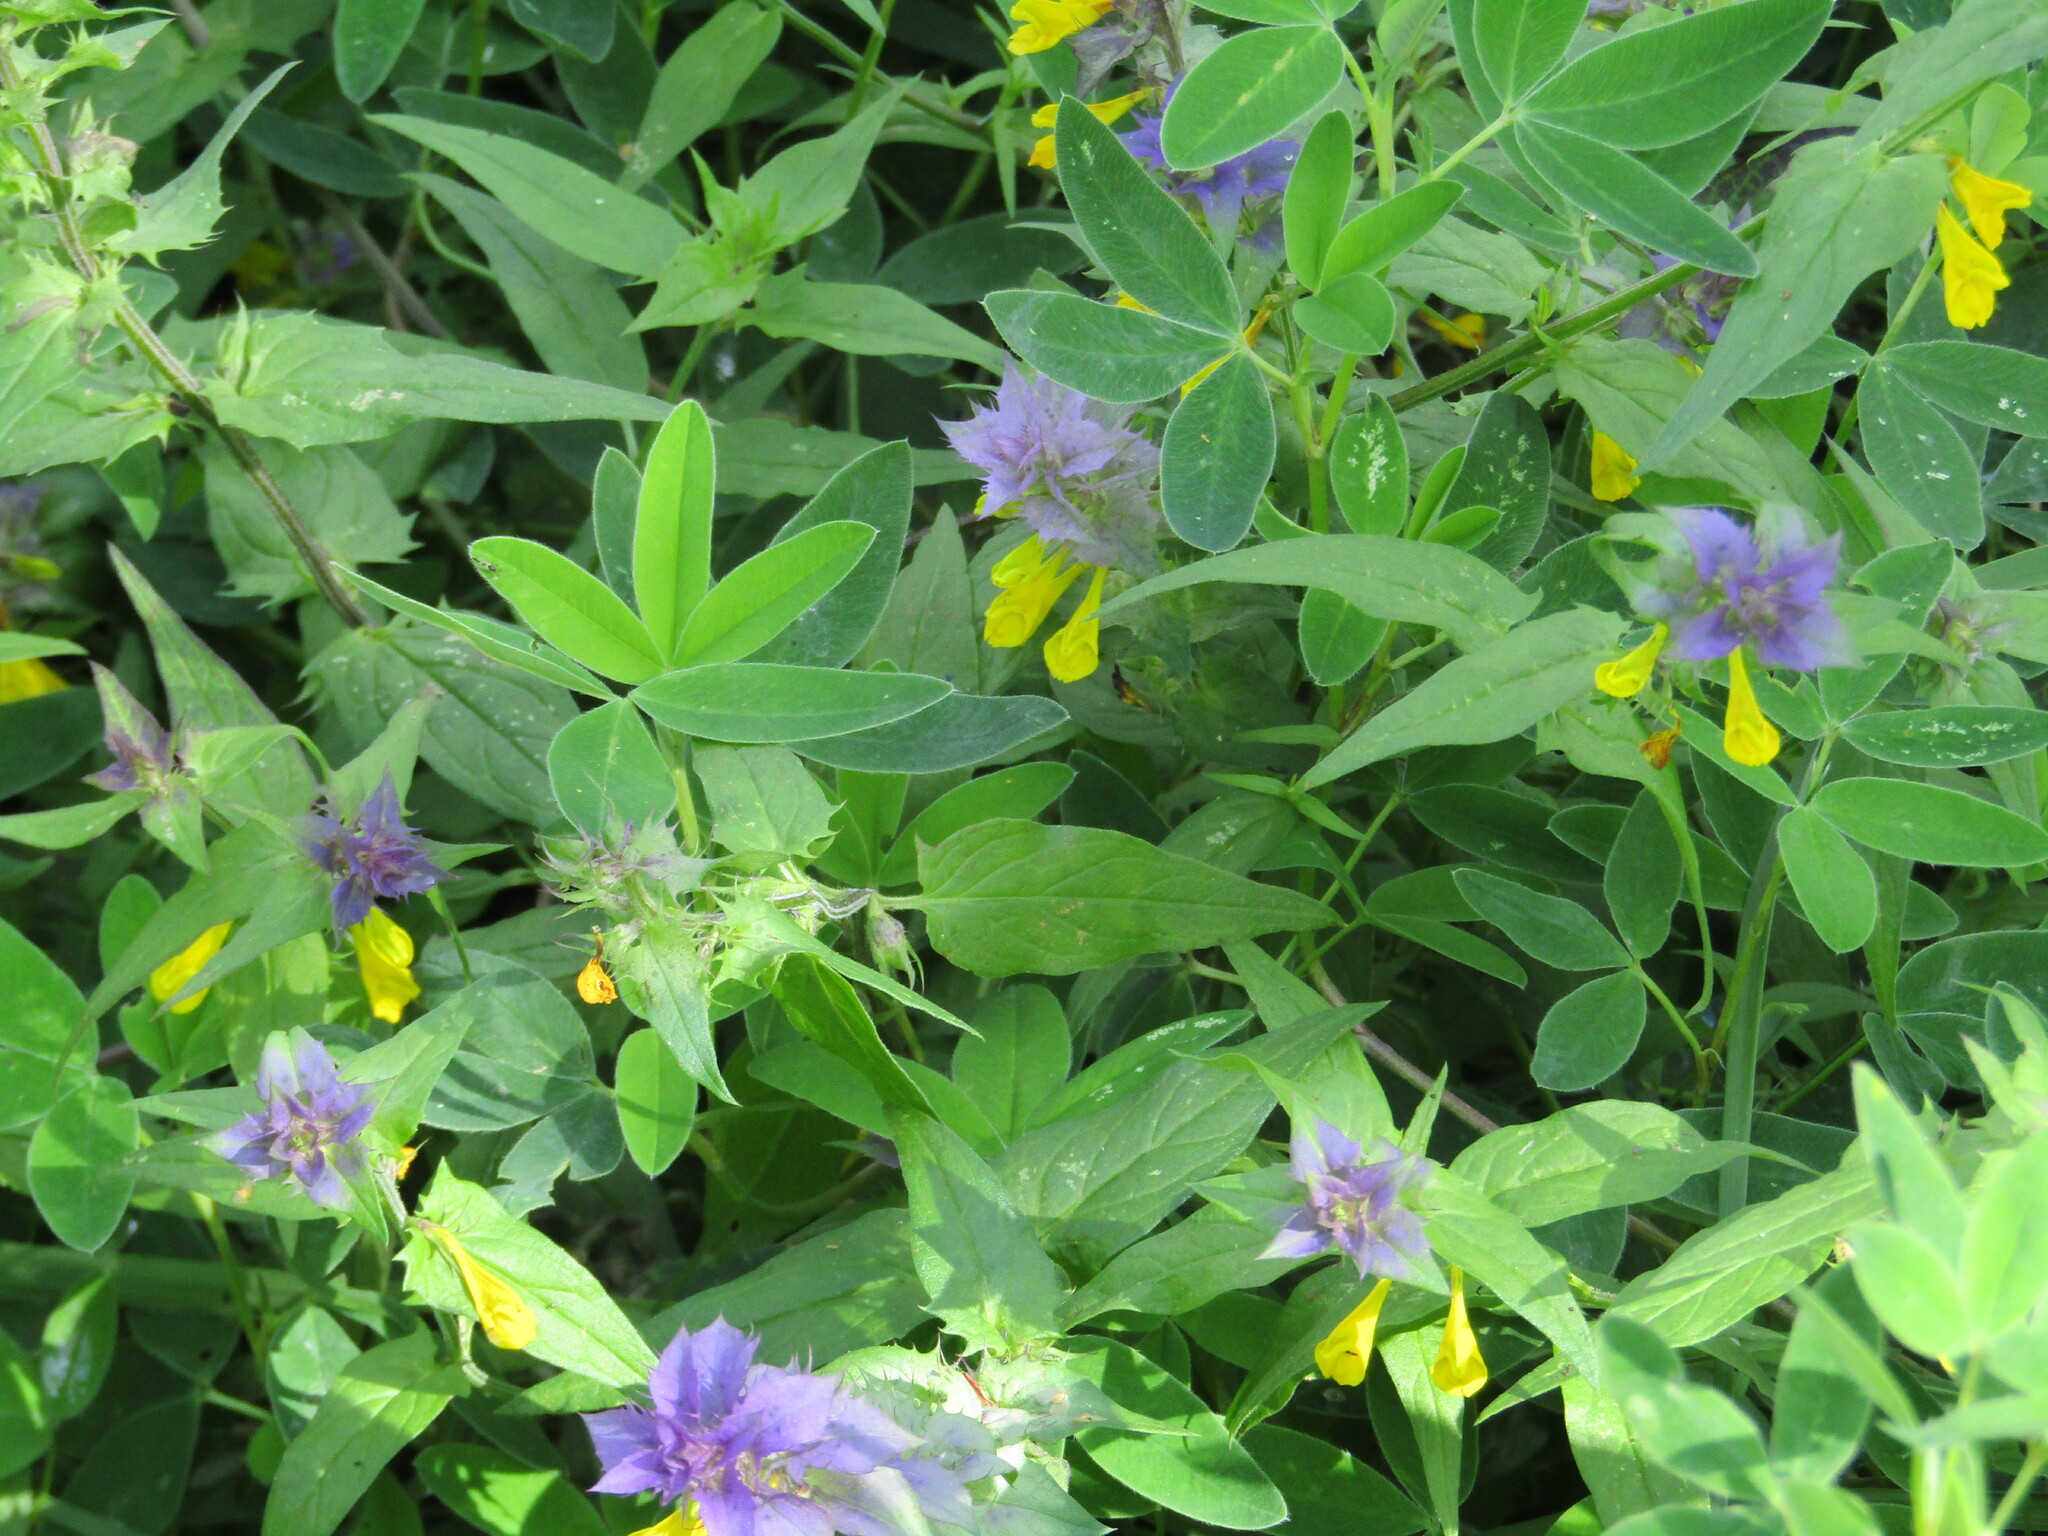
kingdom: Plantae
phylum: Tracheophyta
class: Magnoliopsida
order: Lamiales
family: Orobanchaceae
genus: Melampyrum
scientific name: Melampyrum nemorosum
